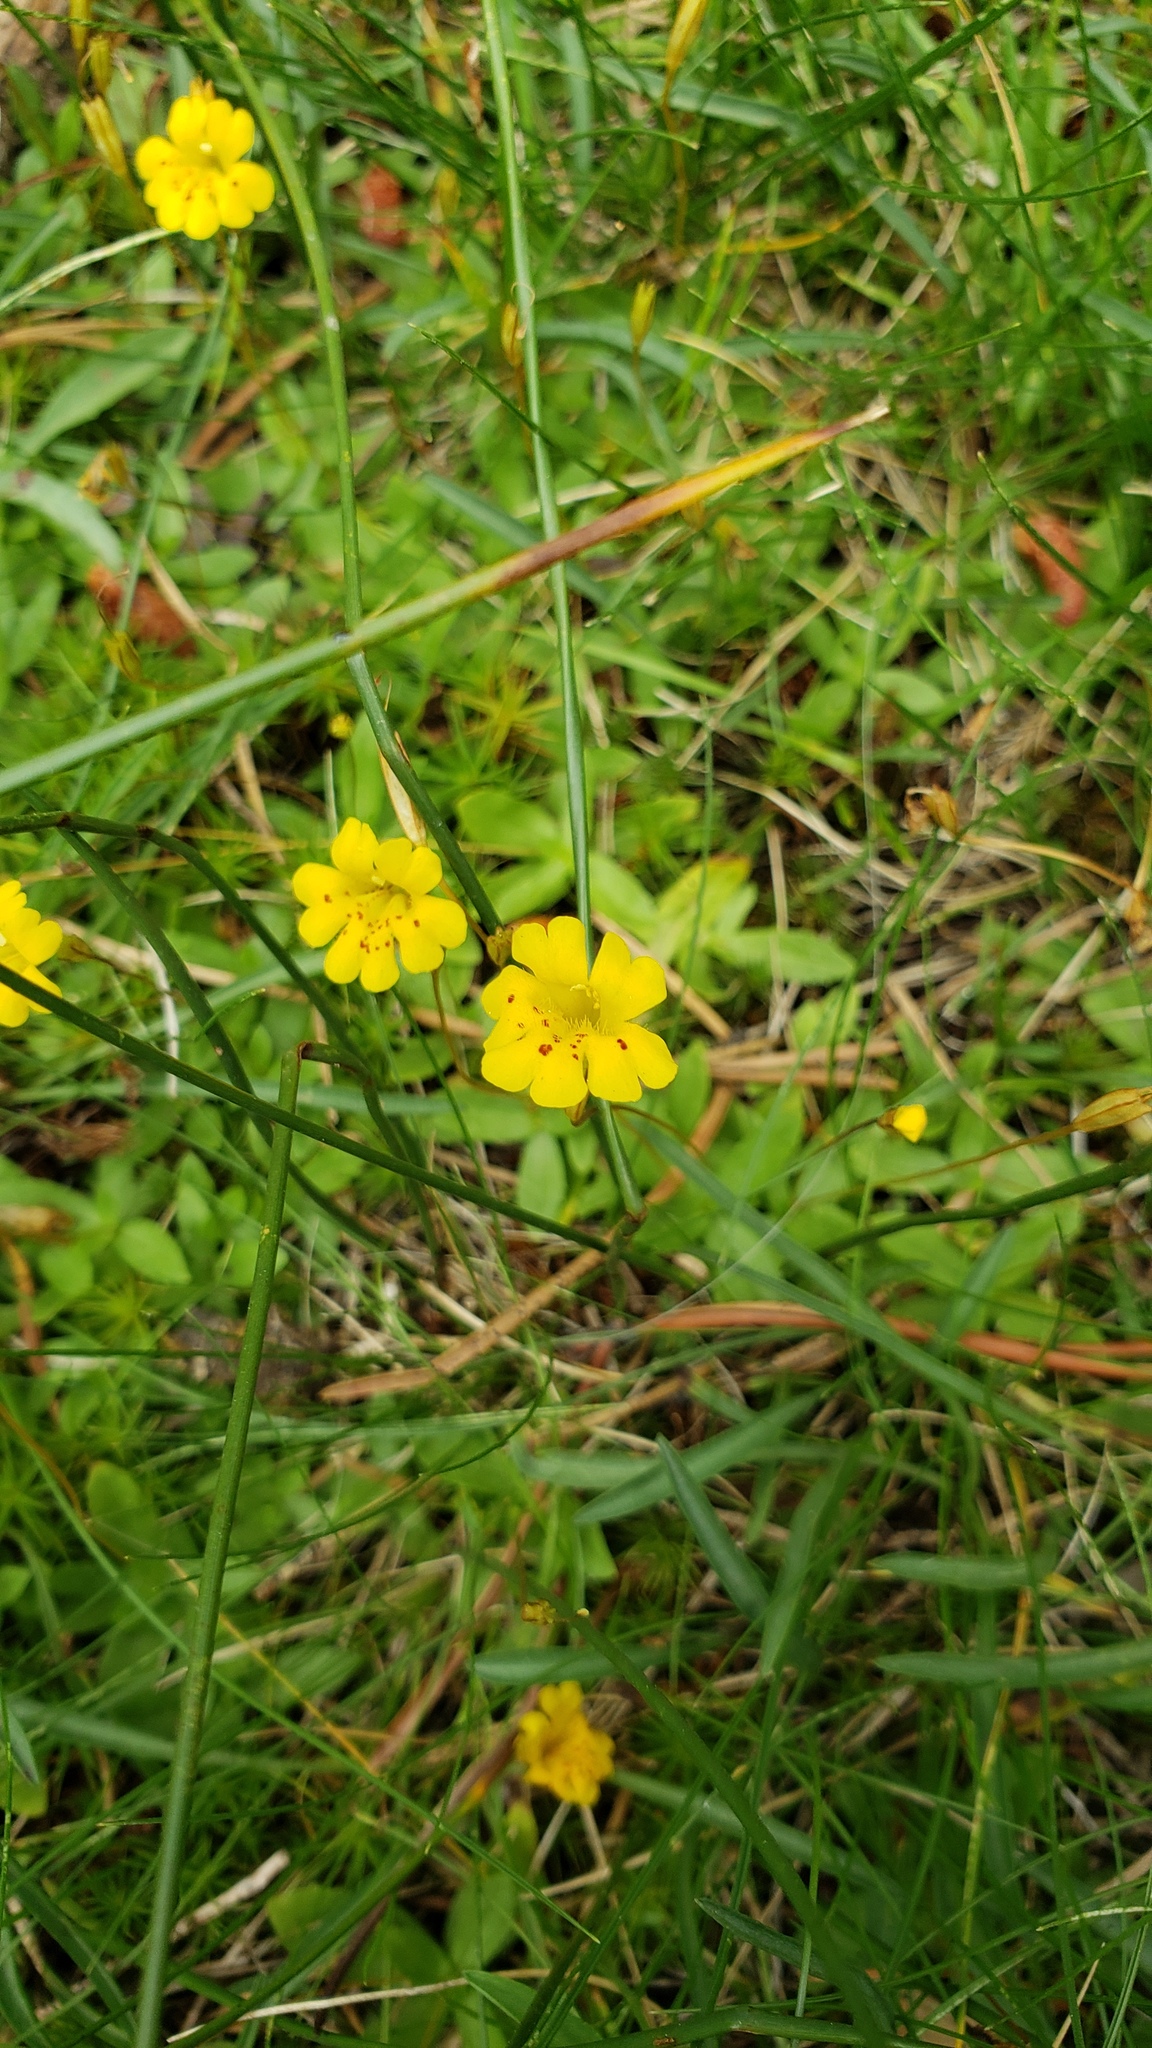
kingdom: Plantae
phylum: Tracheophyta
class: Magnoliopsida
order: Lamiales
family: Phrymaceae
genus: Erythranthe
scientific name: Erythranthe primuloides
